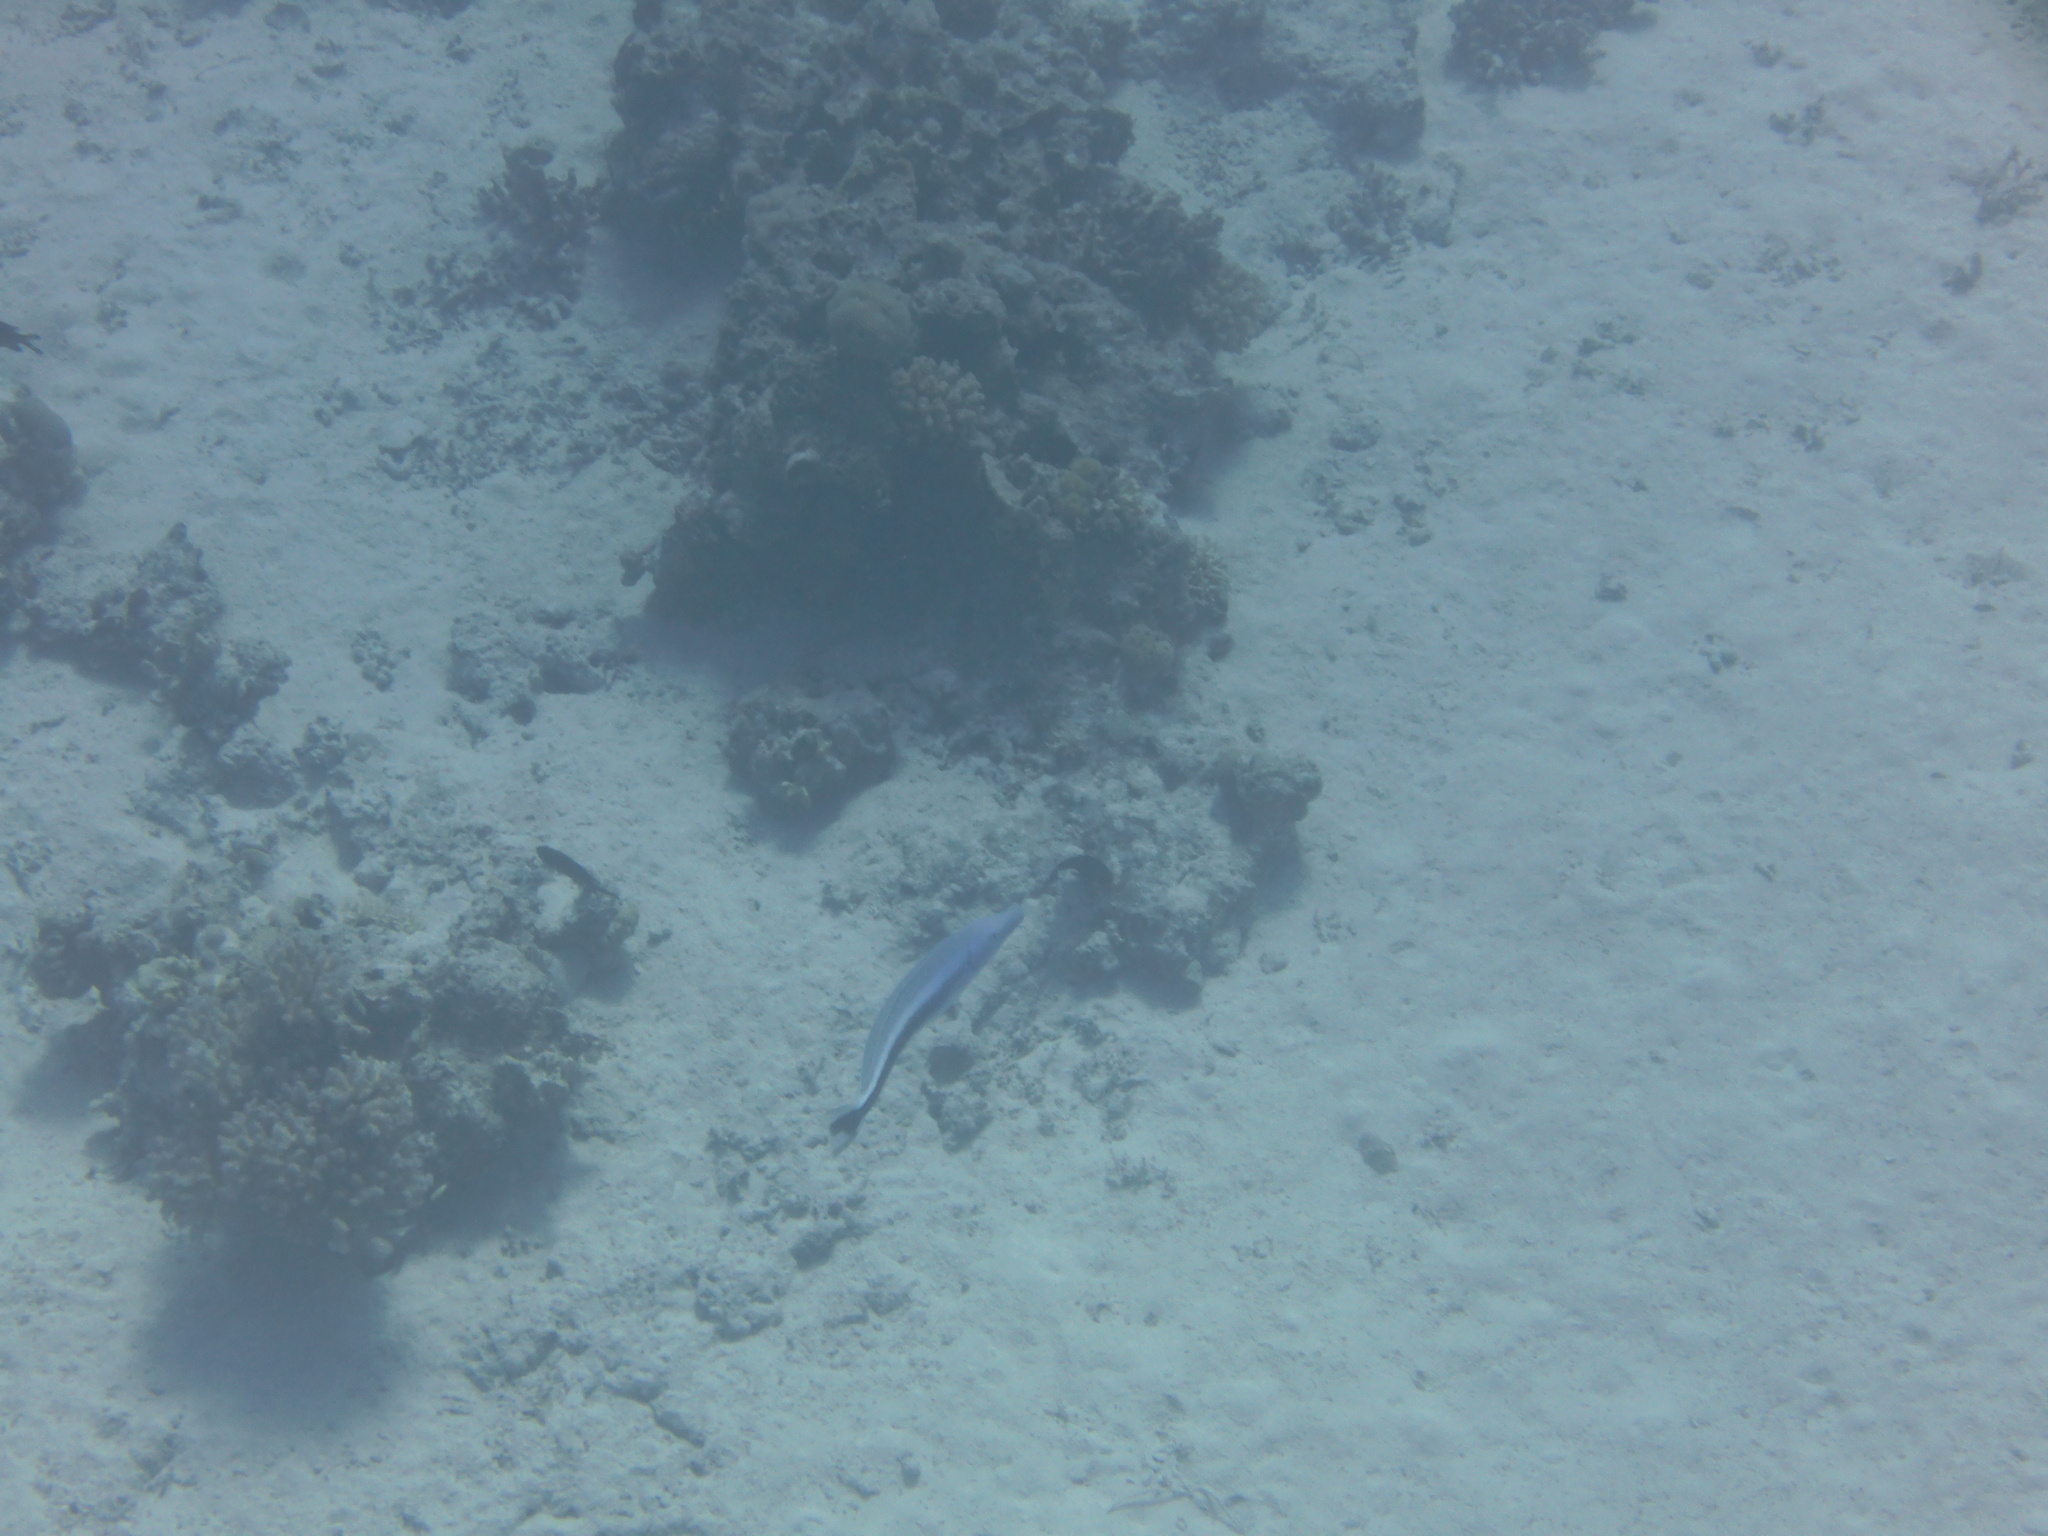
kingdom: Animalia
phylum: Chordata
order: Perciformes
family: Malacanthidae
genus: Malacanthus
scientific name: Malacanthus latovittatus
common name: Blue blanquillo
